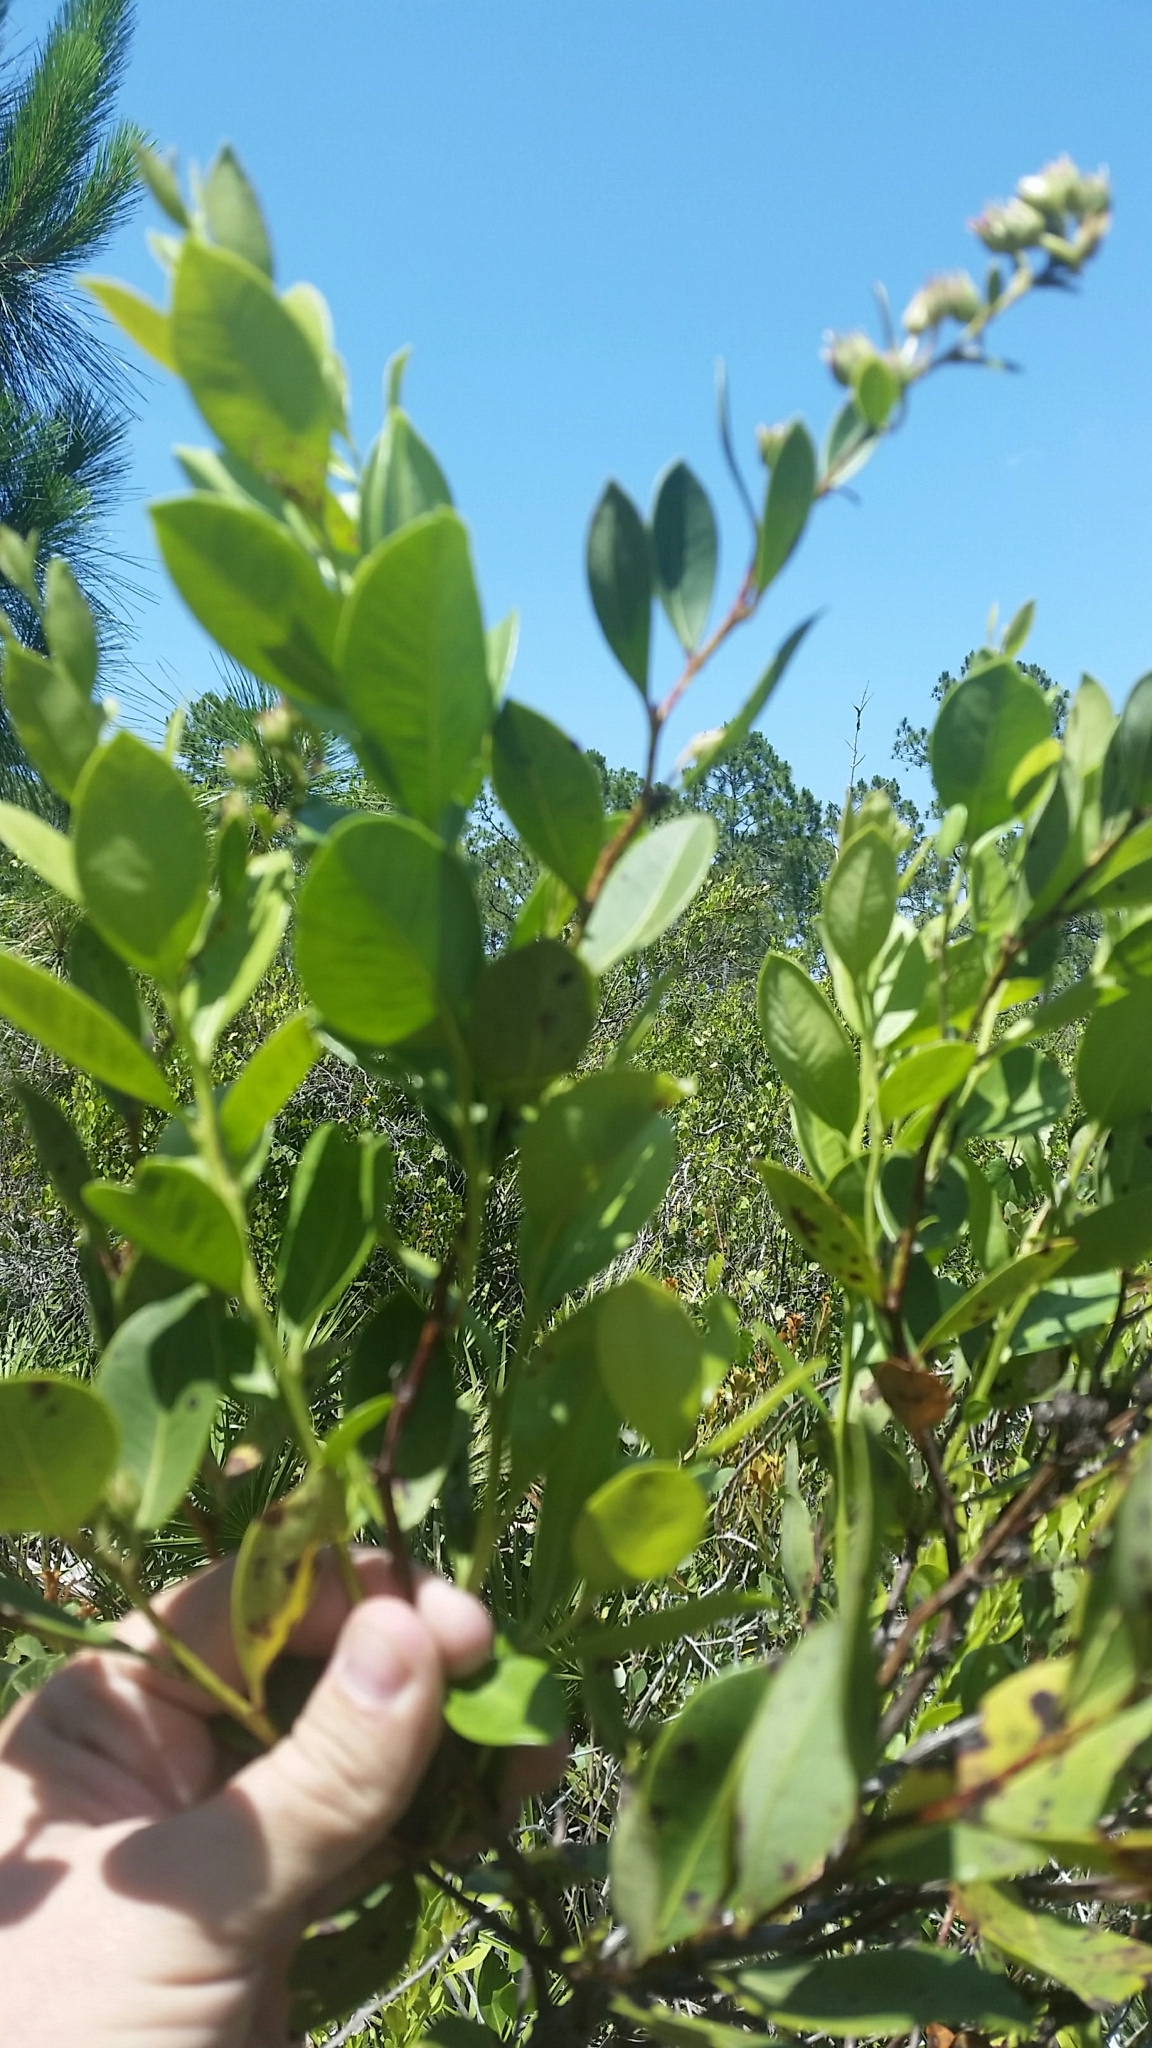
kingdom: Plantae
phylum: Tracheophyta
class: Magnoliopsida
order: Ericales
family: Ericaceae
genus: Lyonia
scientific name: Lyonia lucida
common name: Fetterbush
